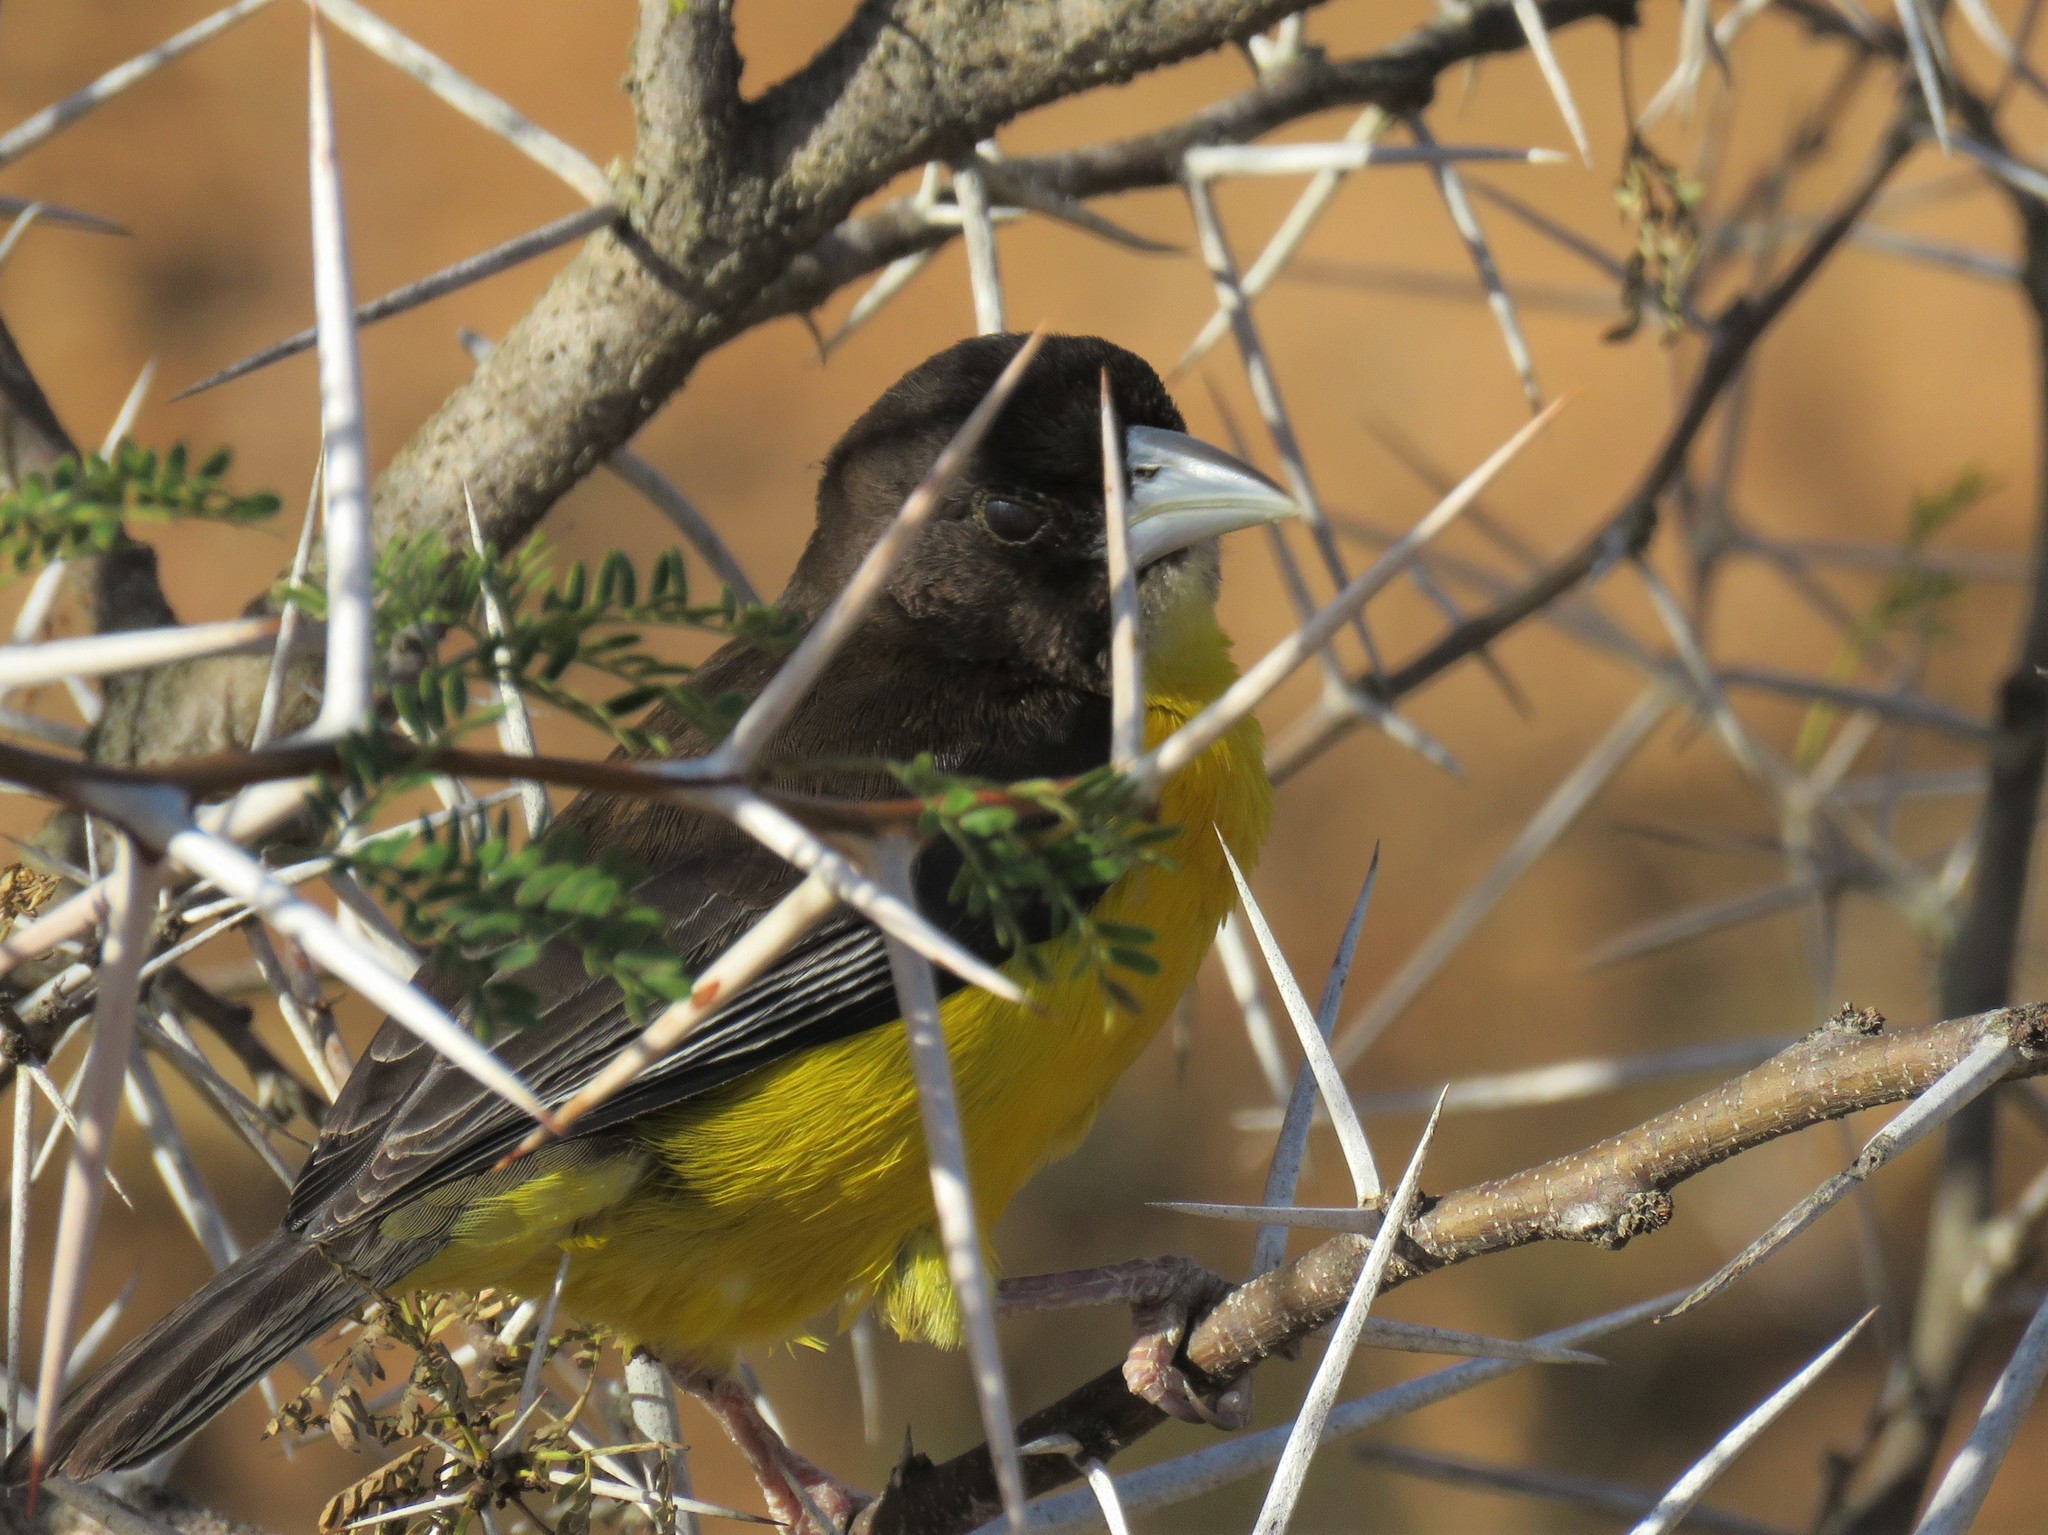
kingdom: Animalia
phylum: Chordata
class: Aves
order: Passeriformes
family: Ploceidae
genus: Ploceus
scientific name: Ploceus bicolor
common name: Dark-backed weaver
